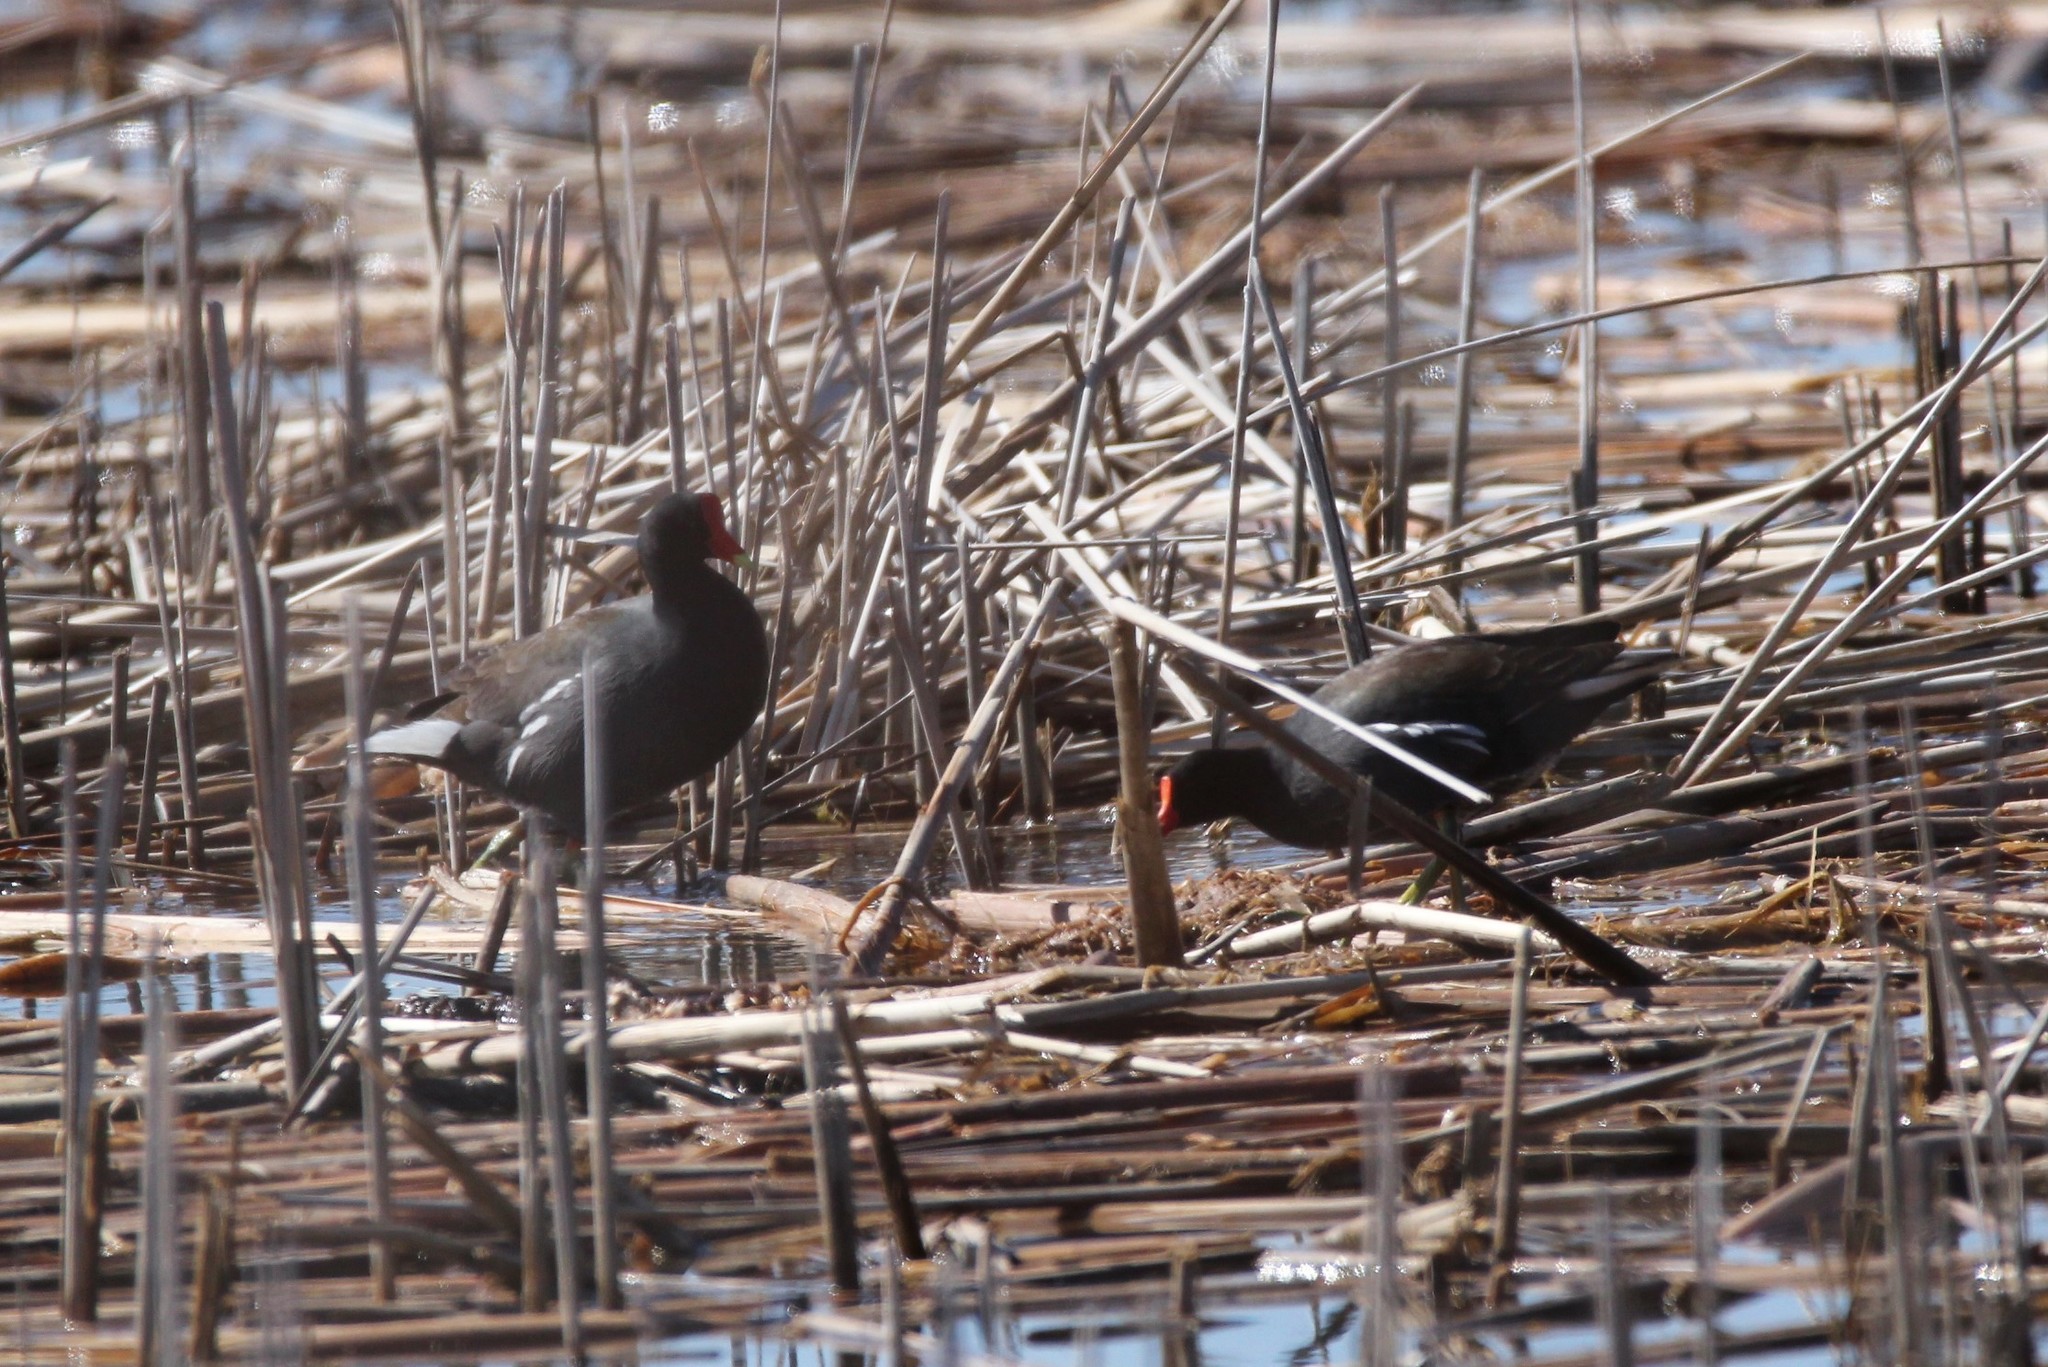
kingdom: Animalia
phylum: Chordata
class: Aves
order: Gruiformes
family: Rallidae
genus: Gallinula
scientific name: Gallinula chloropus
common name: Common moorhen
